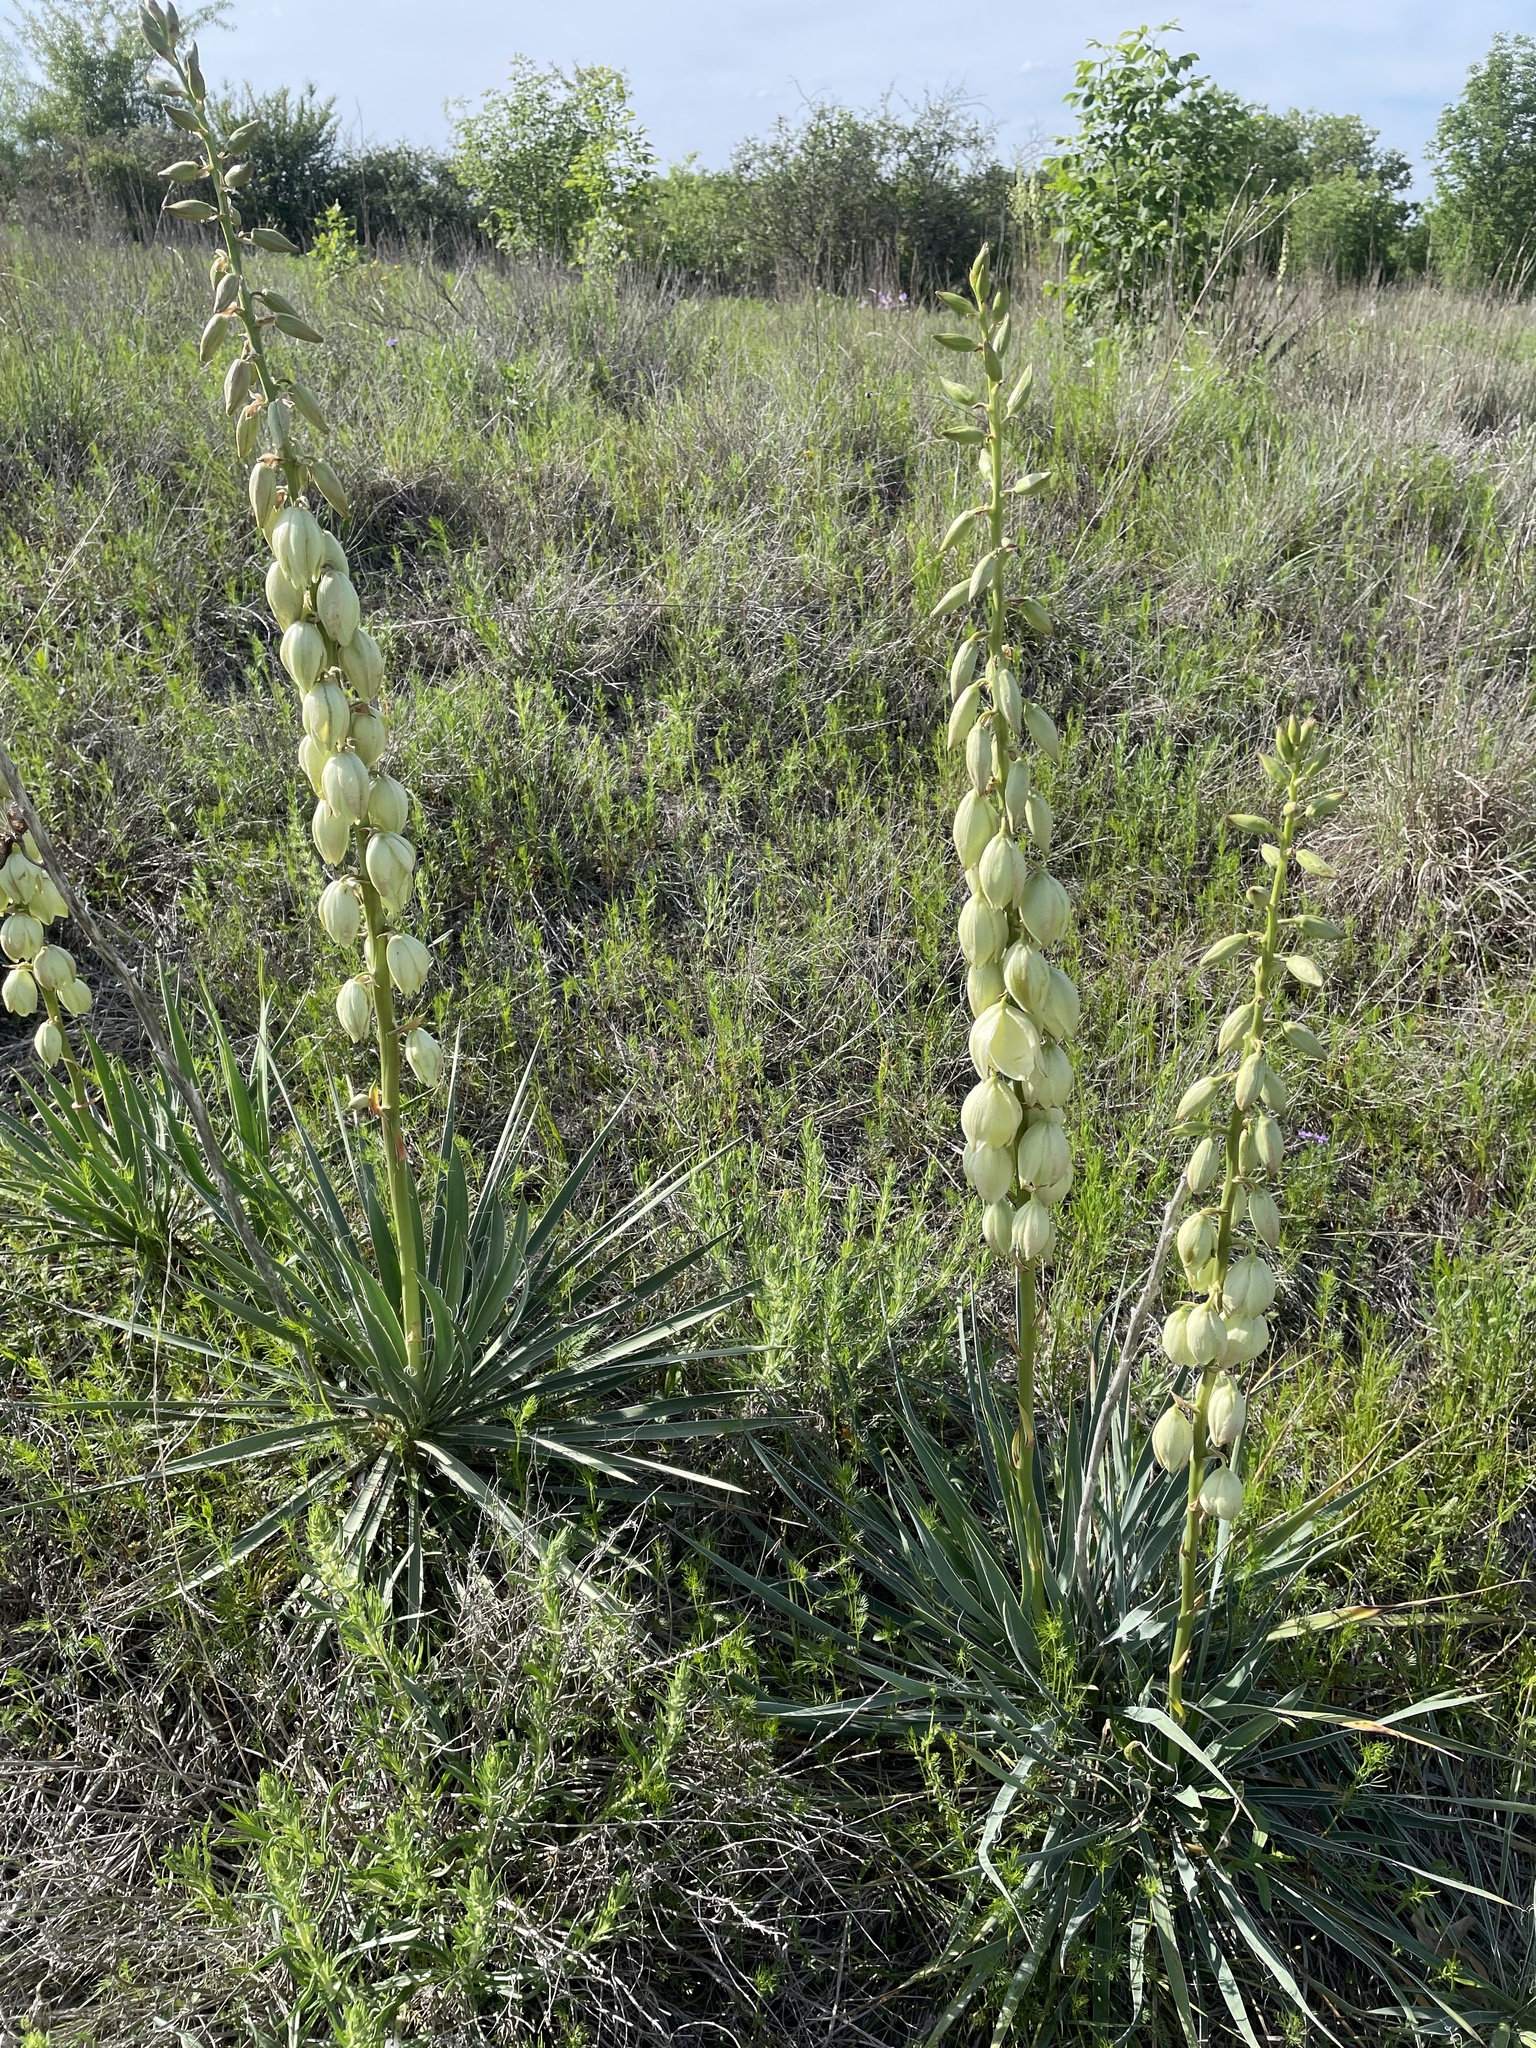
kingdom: Plantae
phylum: Tracheophyta
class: Liliopsida
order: Asparagales
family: Asparagaceae
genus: Yucca
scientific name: Yucca arkansana
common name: Arkansas yucca
